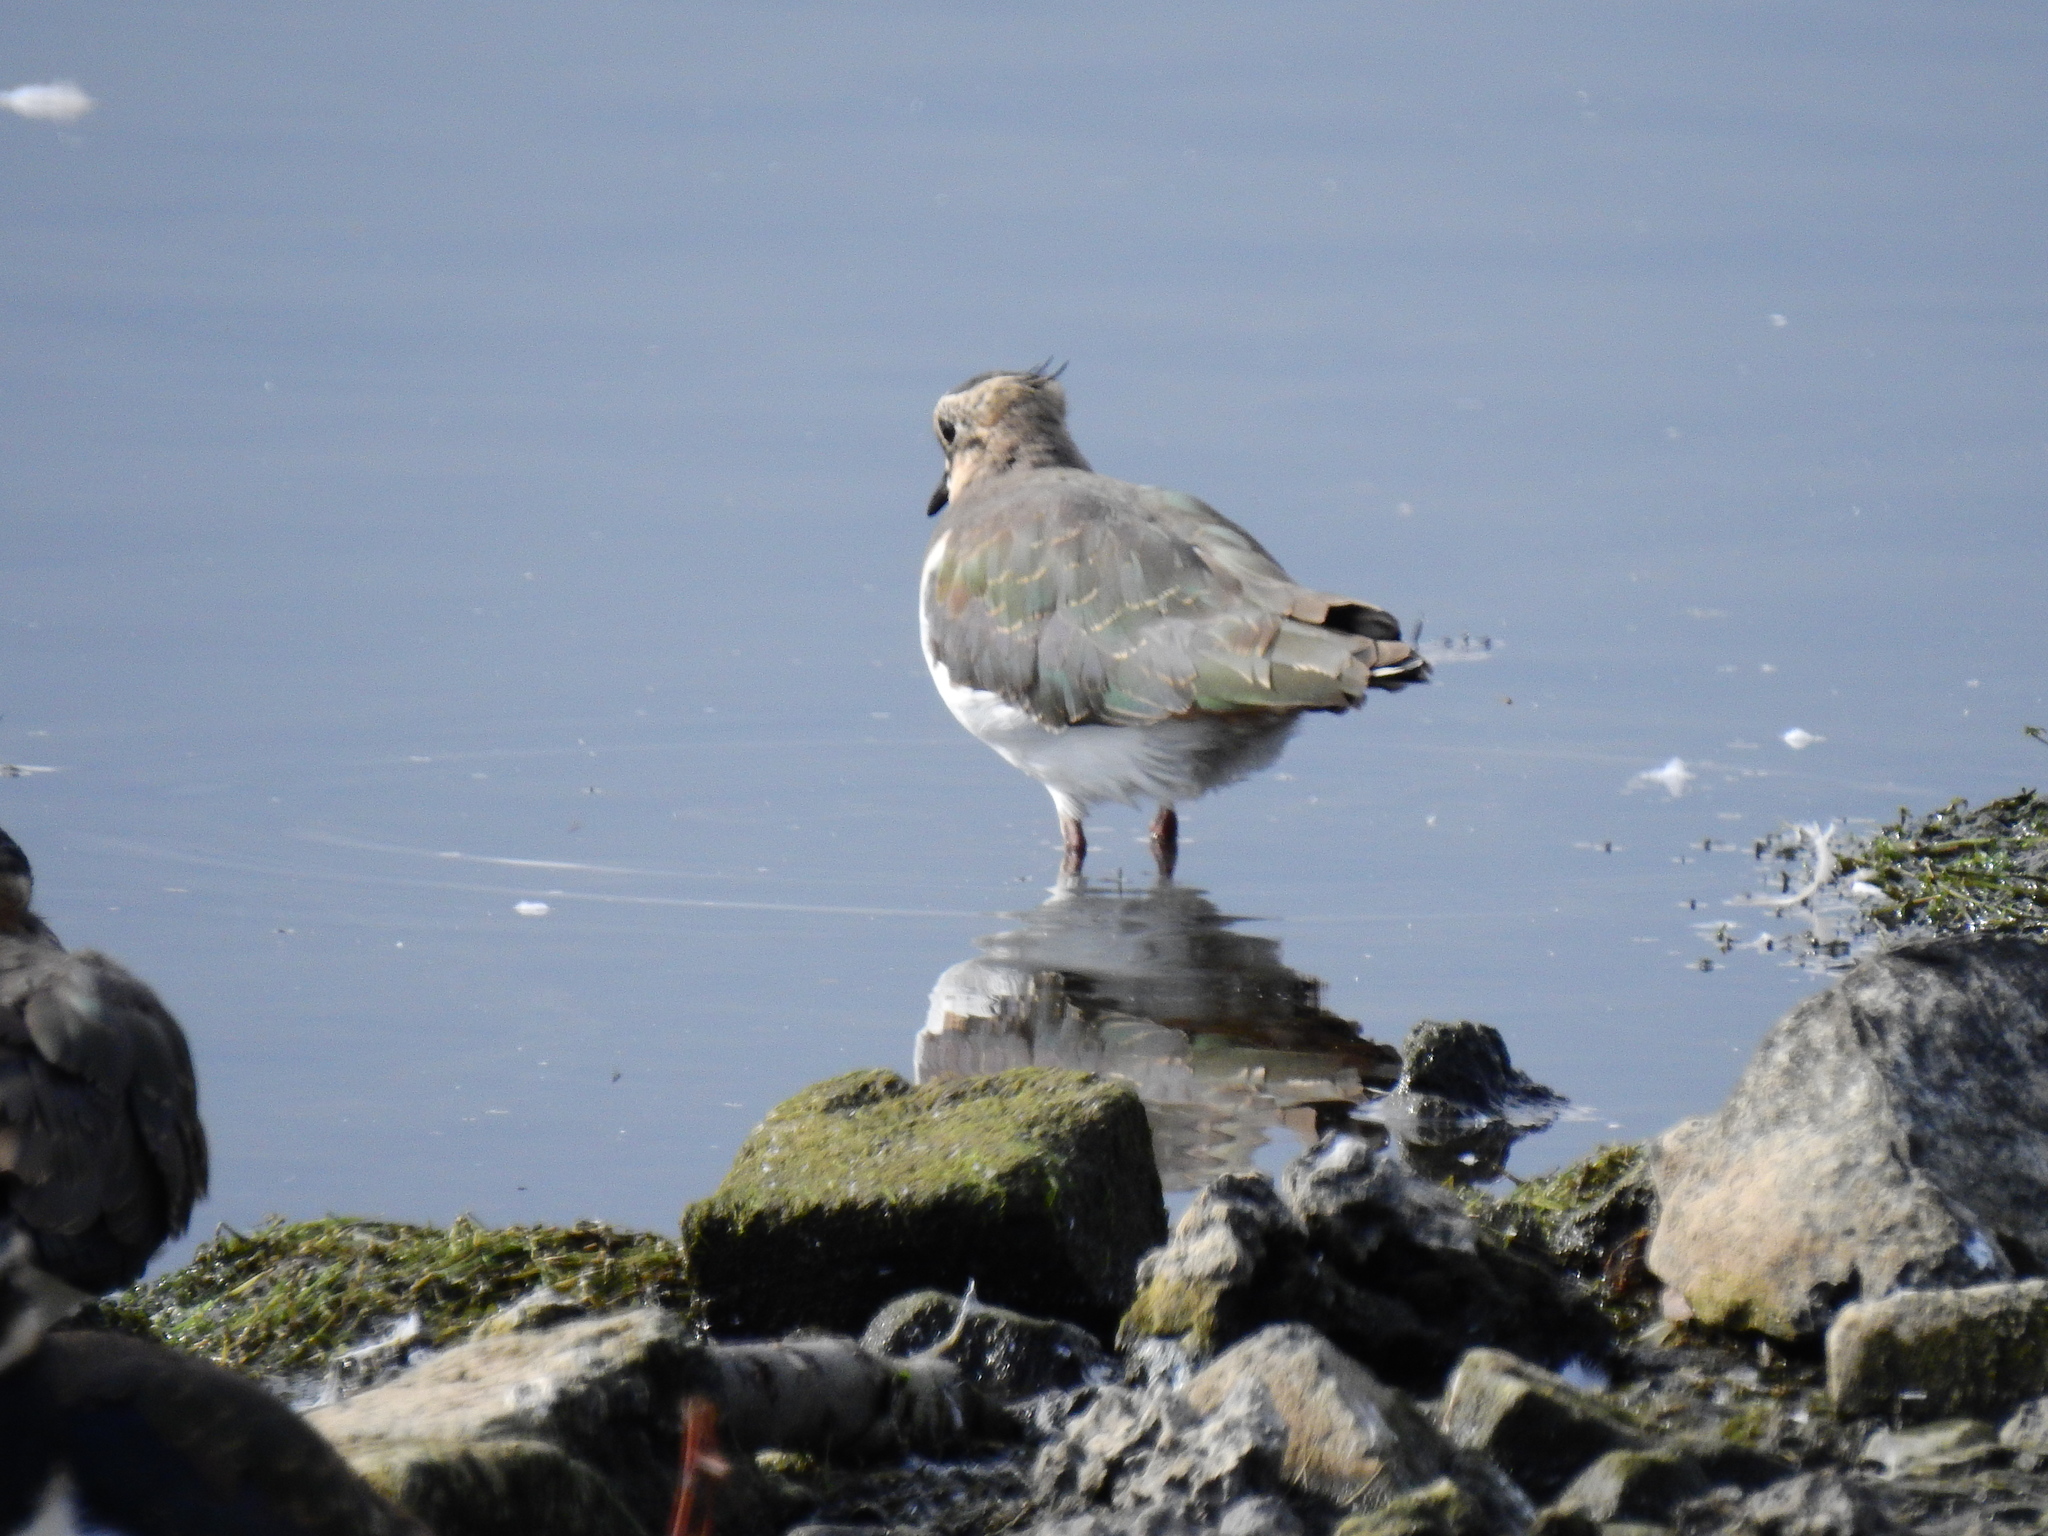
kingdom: Animalia
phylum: Chordata
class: Aves
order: Charadriiformes
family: Charadriidae
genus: Vanellus
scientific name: Vanellus vanellus
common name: Northern lapwing
